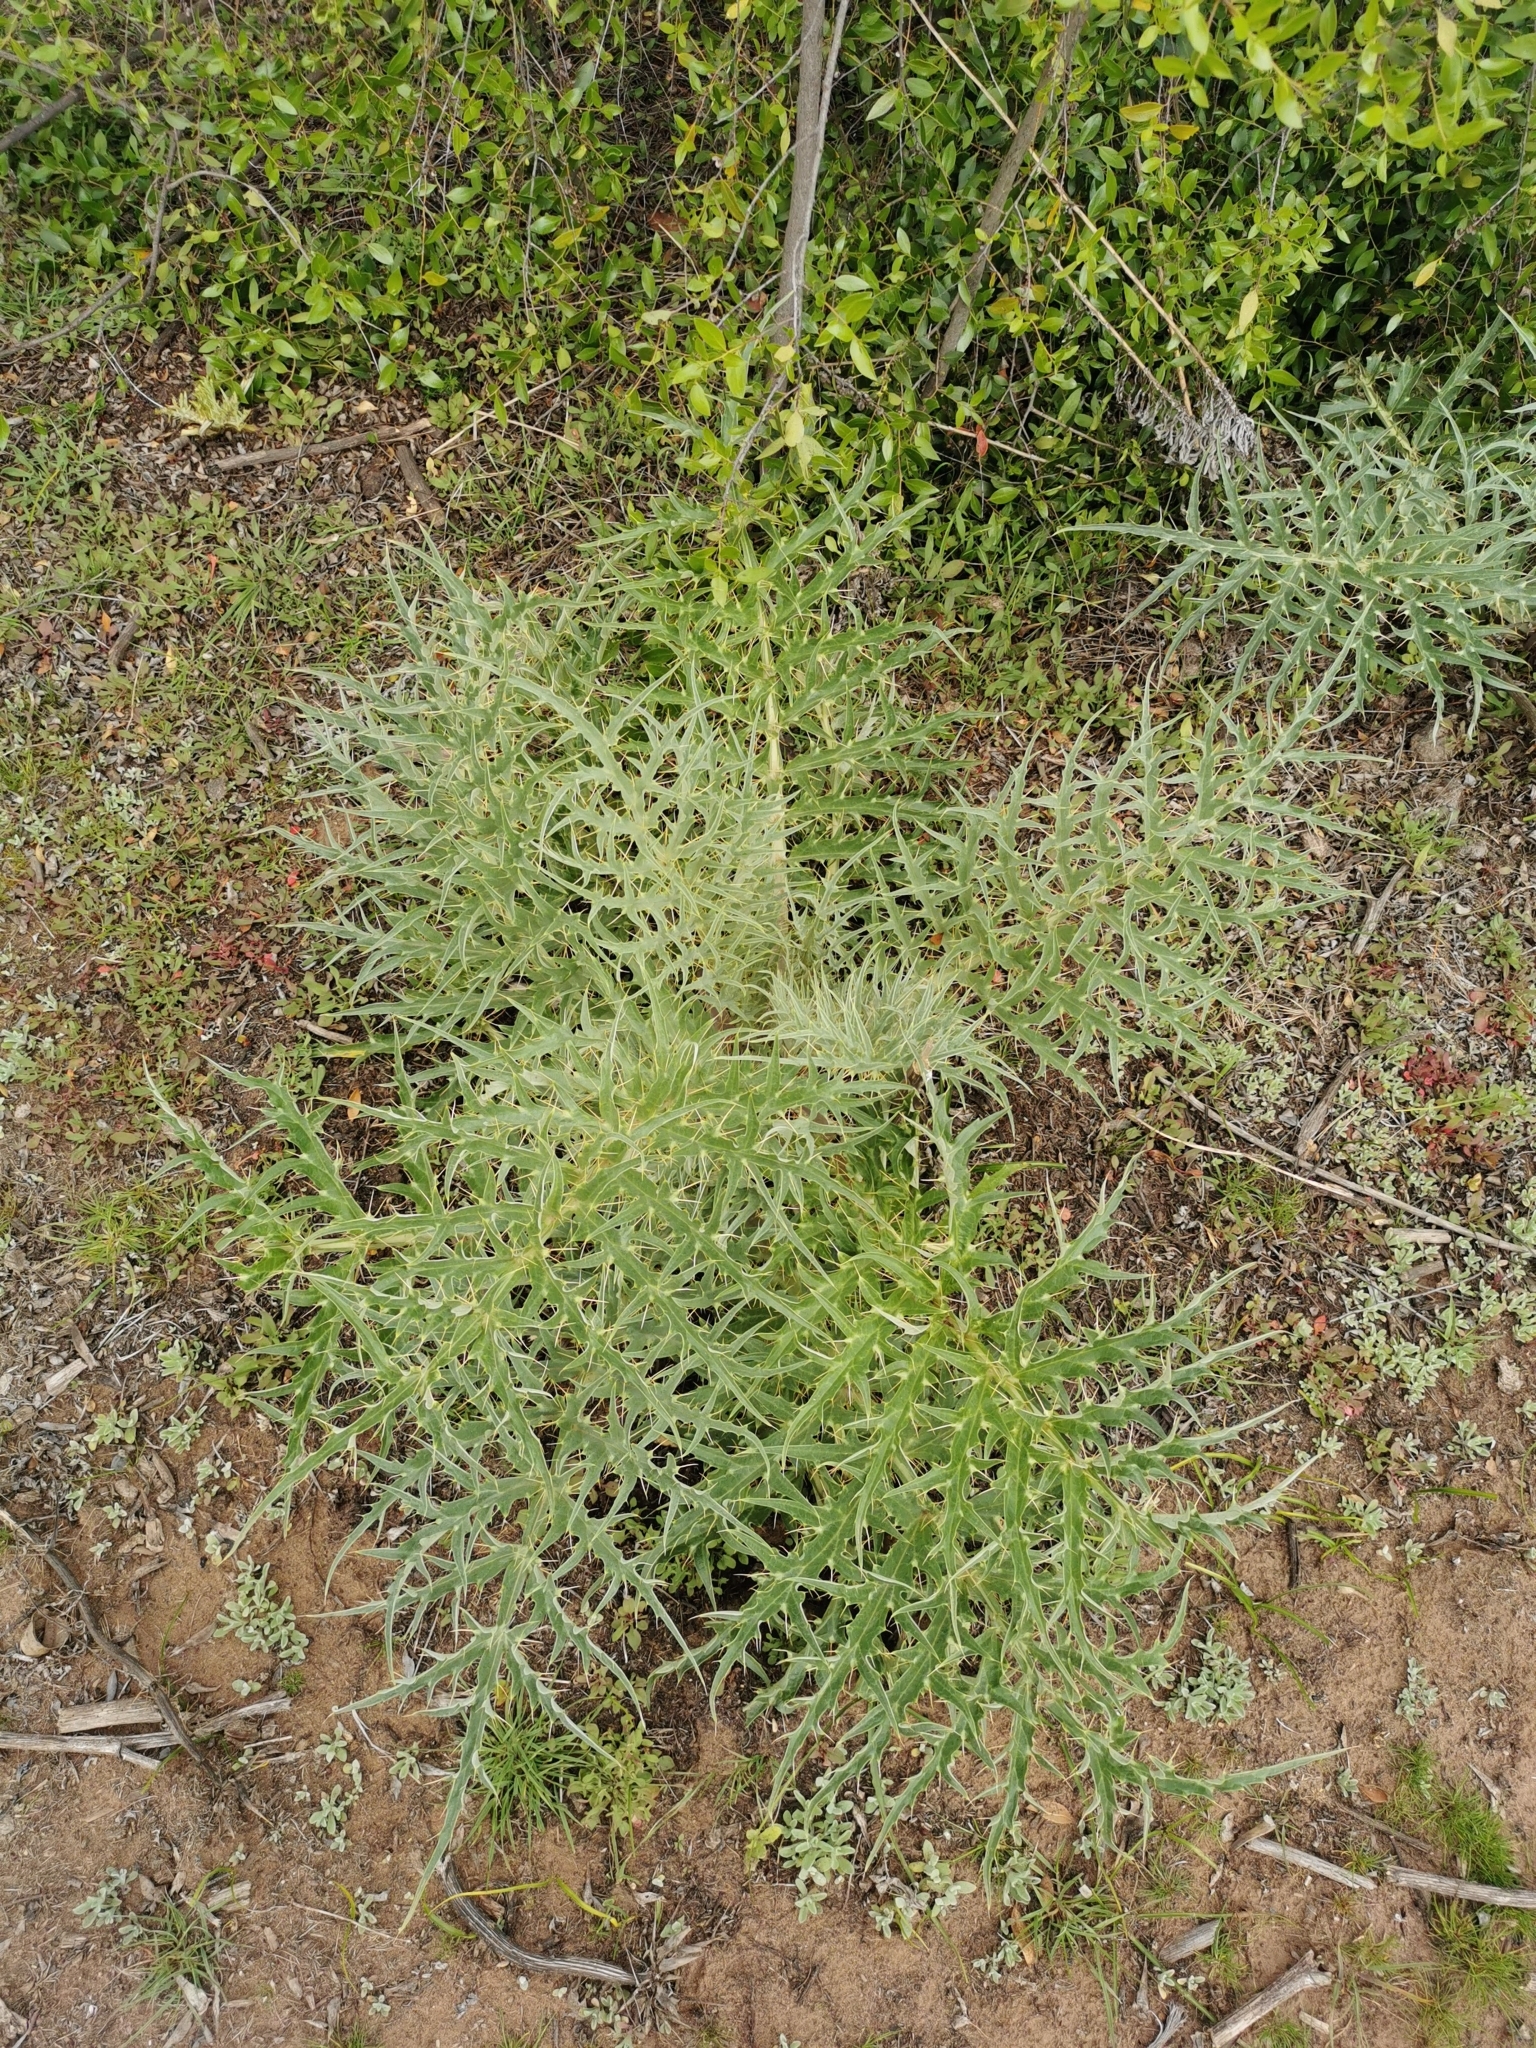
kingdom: Plantae
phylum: Tracheophyta
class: Magnoliopsida
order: Asterales
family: Asteraceae
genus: Cynara
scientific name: Cynara cardunculus
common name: Globe artichoke
